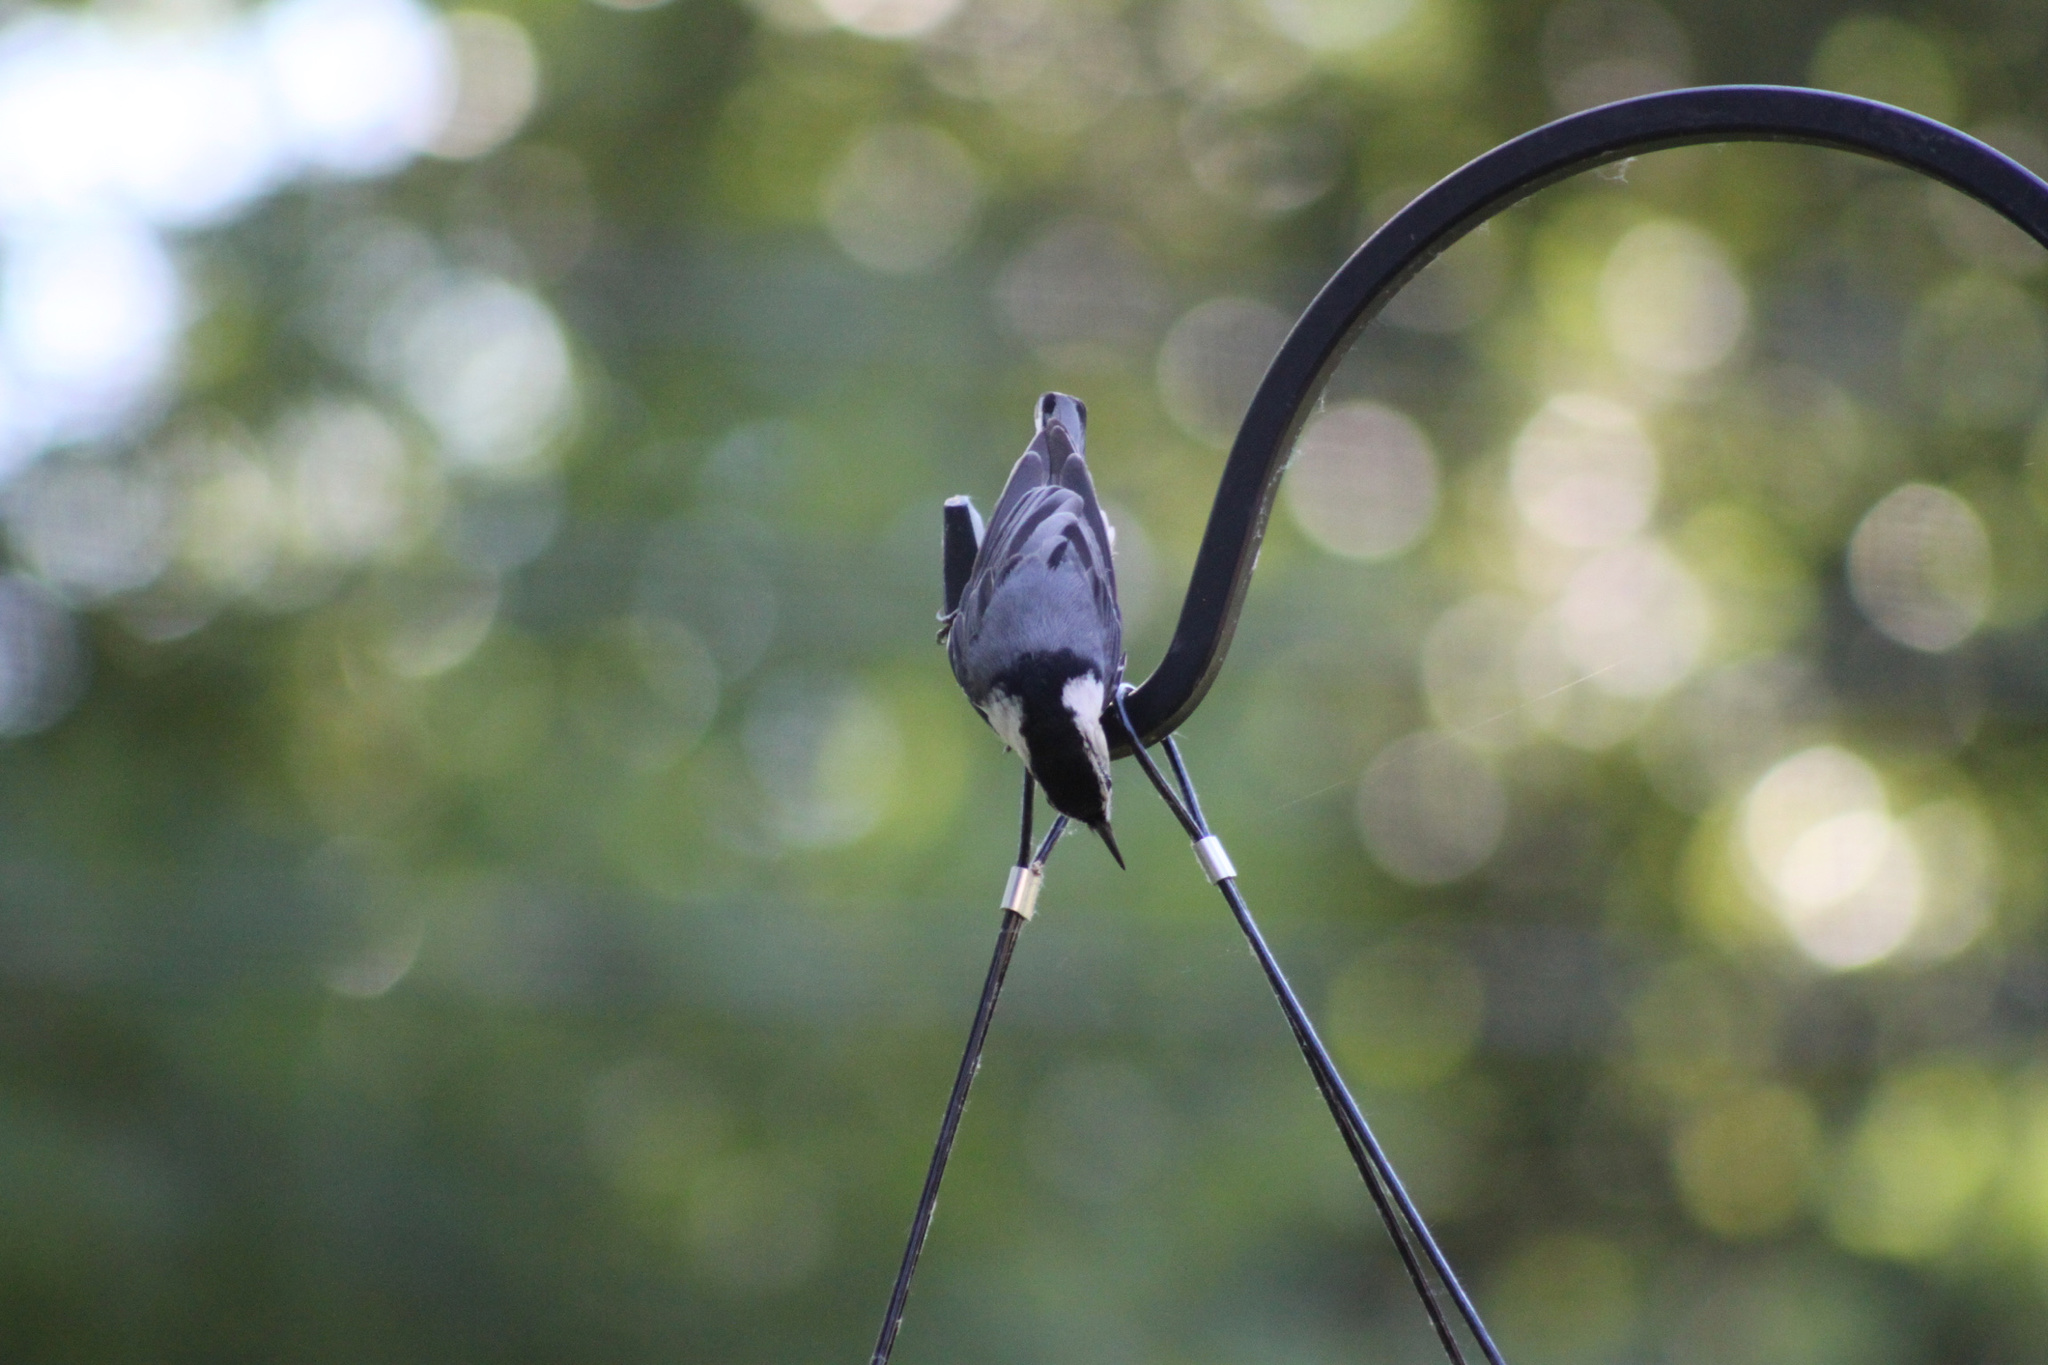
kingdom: Animalia
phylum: Chordata
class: Aves
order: Passeriformes
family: Sittidae
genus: Sitta
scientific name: Sitta carolinensis
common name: White-breasted nuthatch
